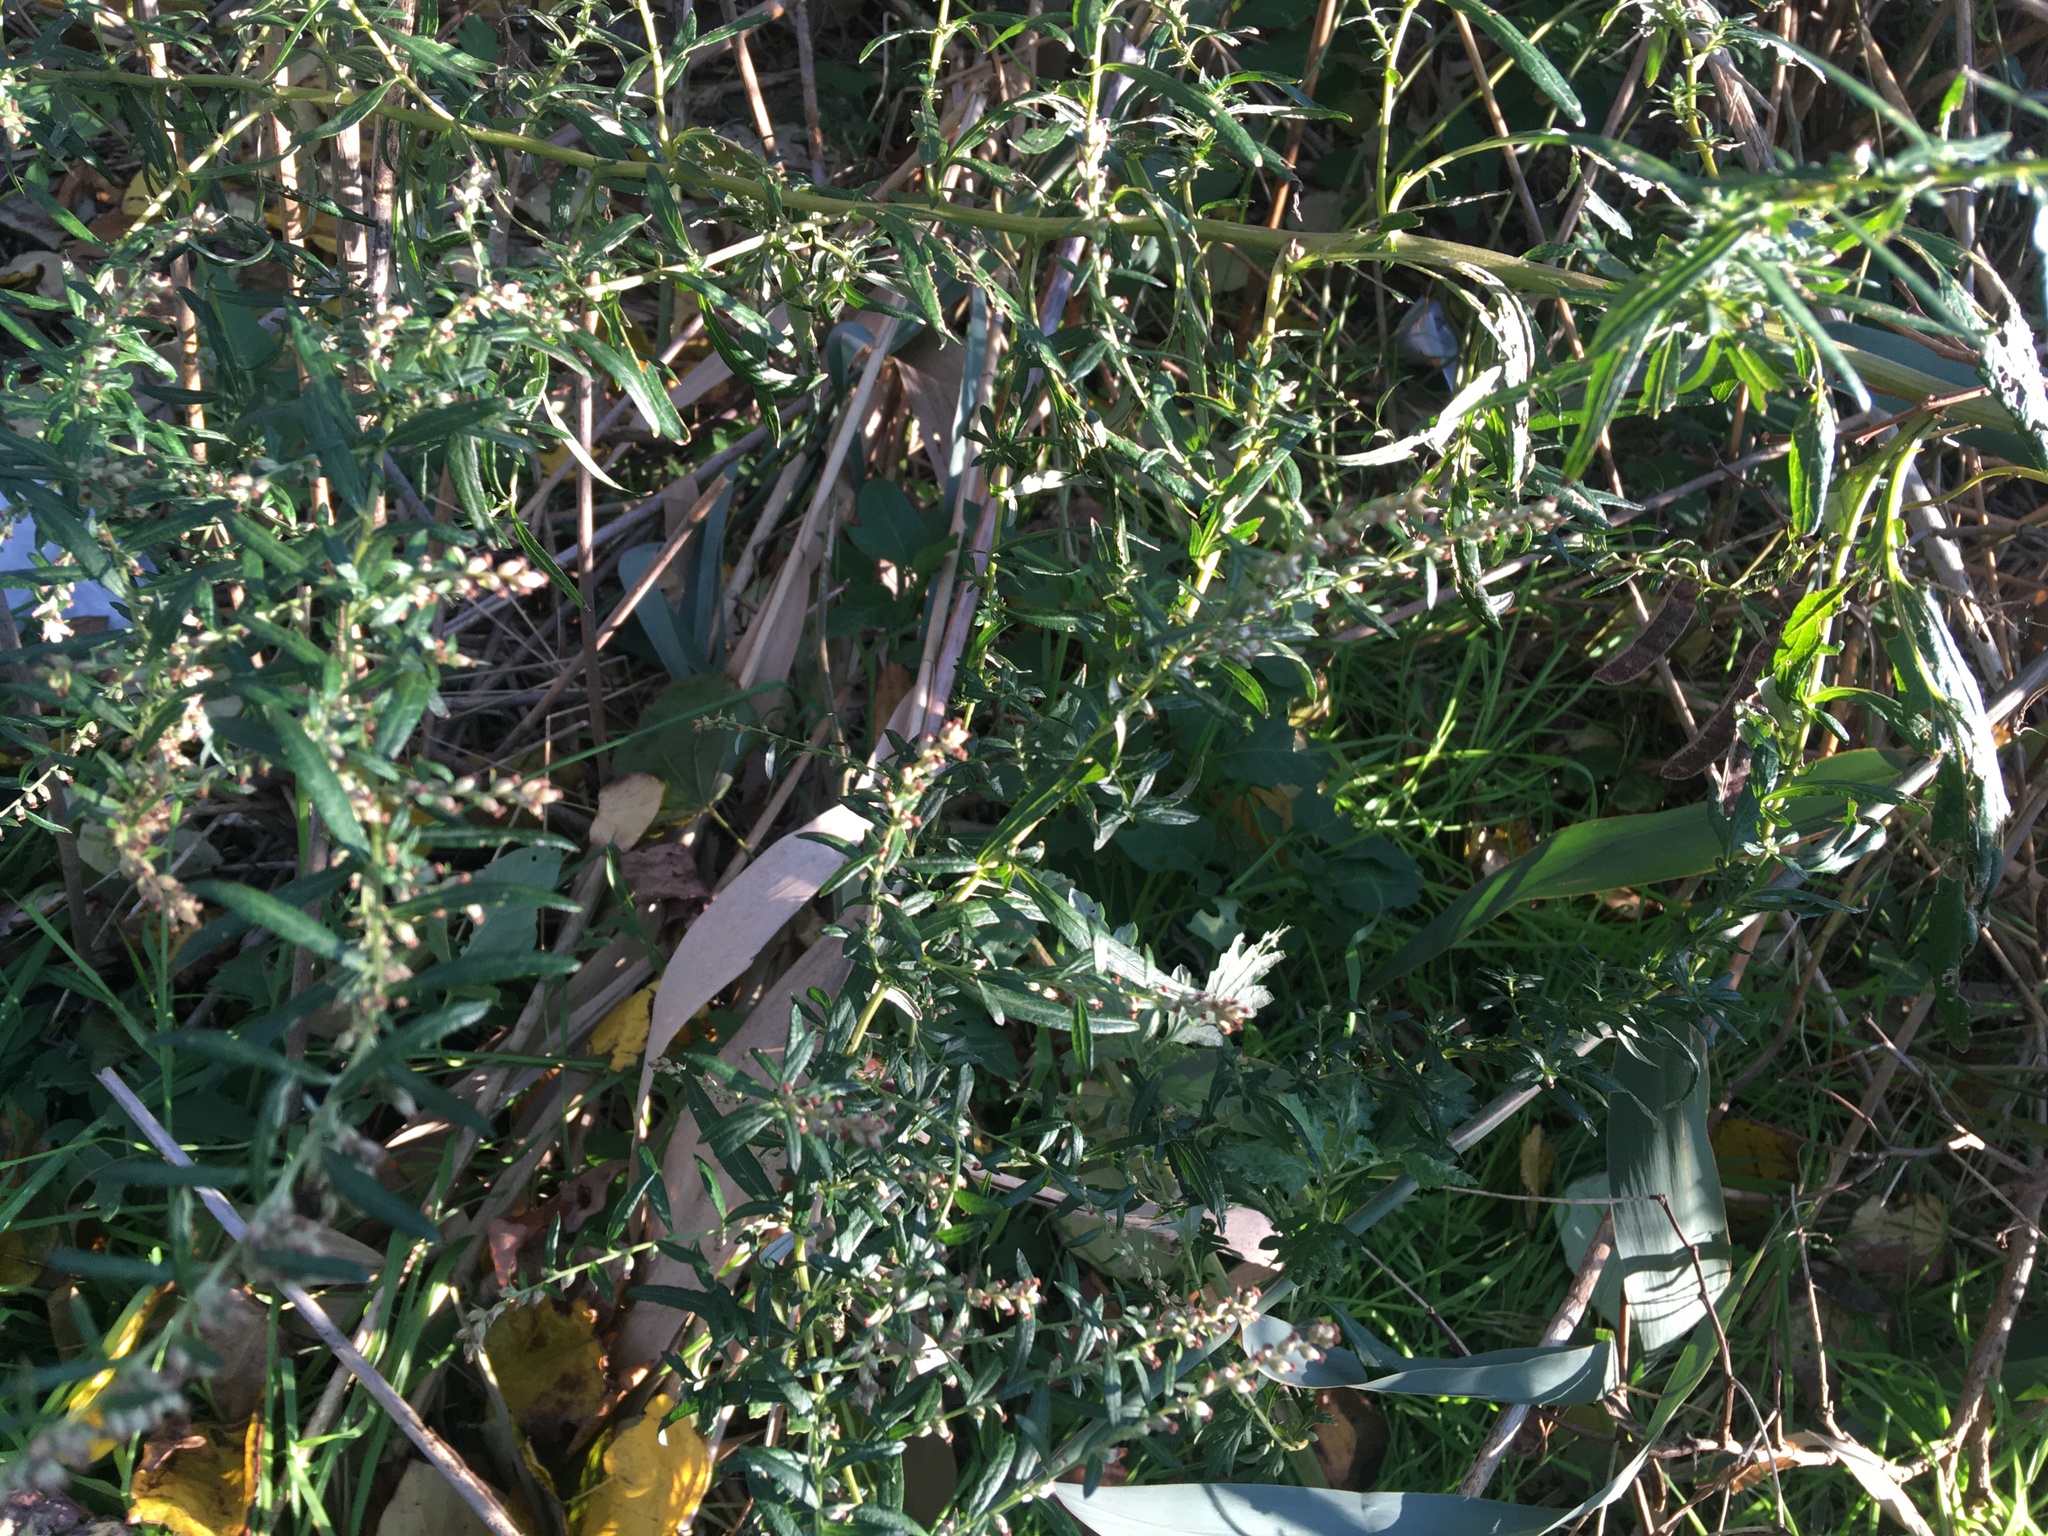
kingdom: Plantae
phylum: Tracheophyta
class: Magnoliopsida
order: Asterales
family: Asteraceae
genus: Artemisia
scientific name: Artemisia vulgaris
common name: Mugwort
